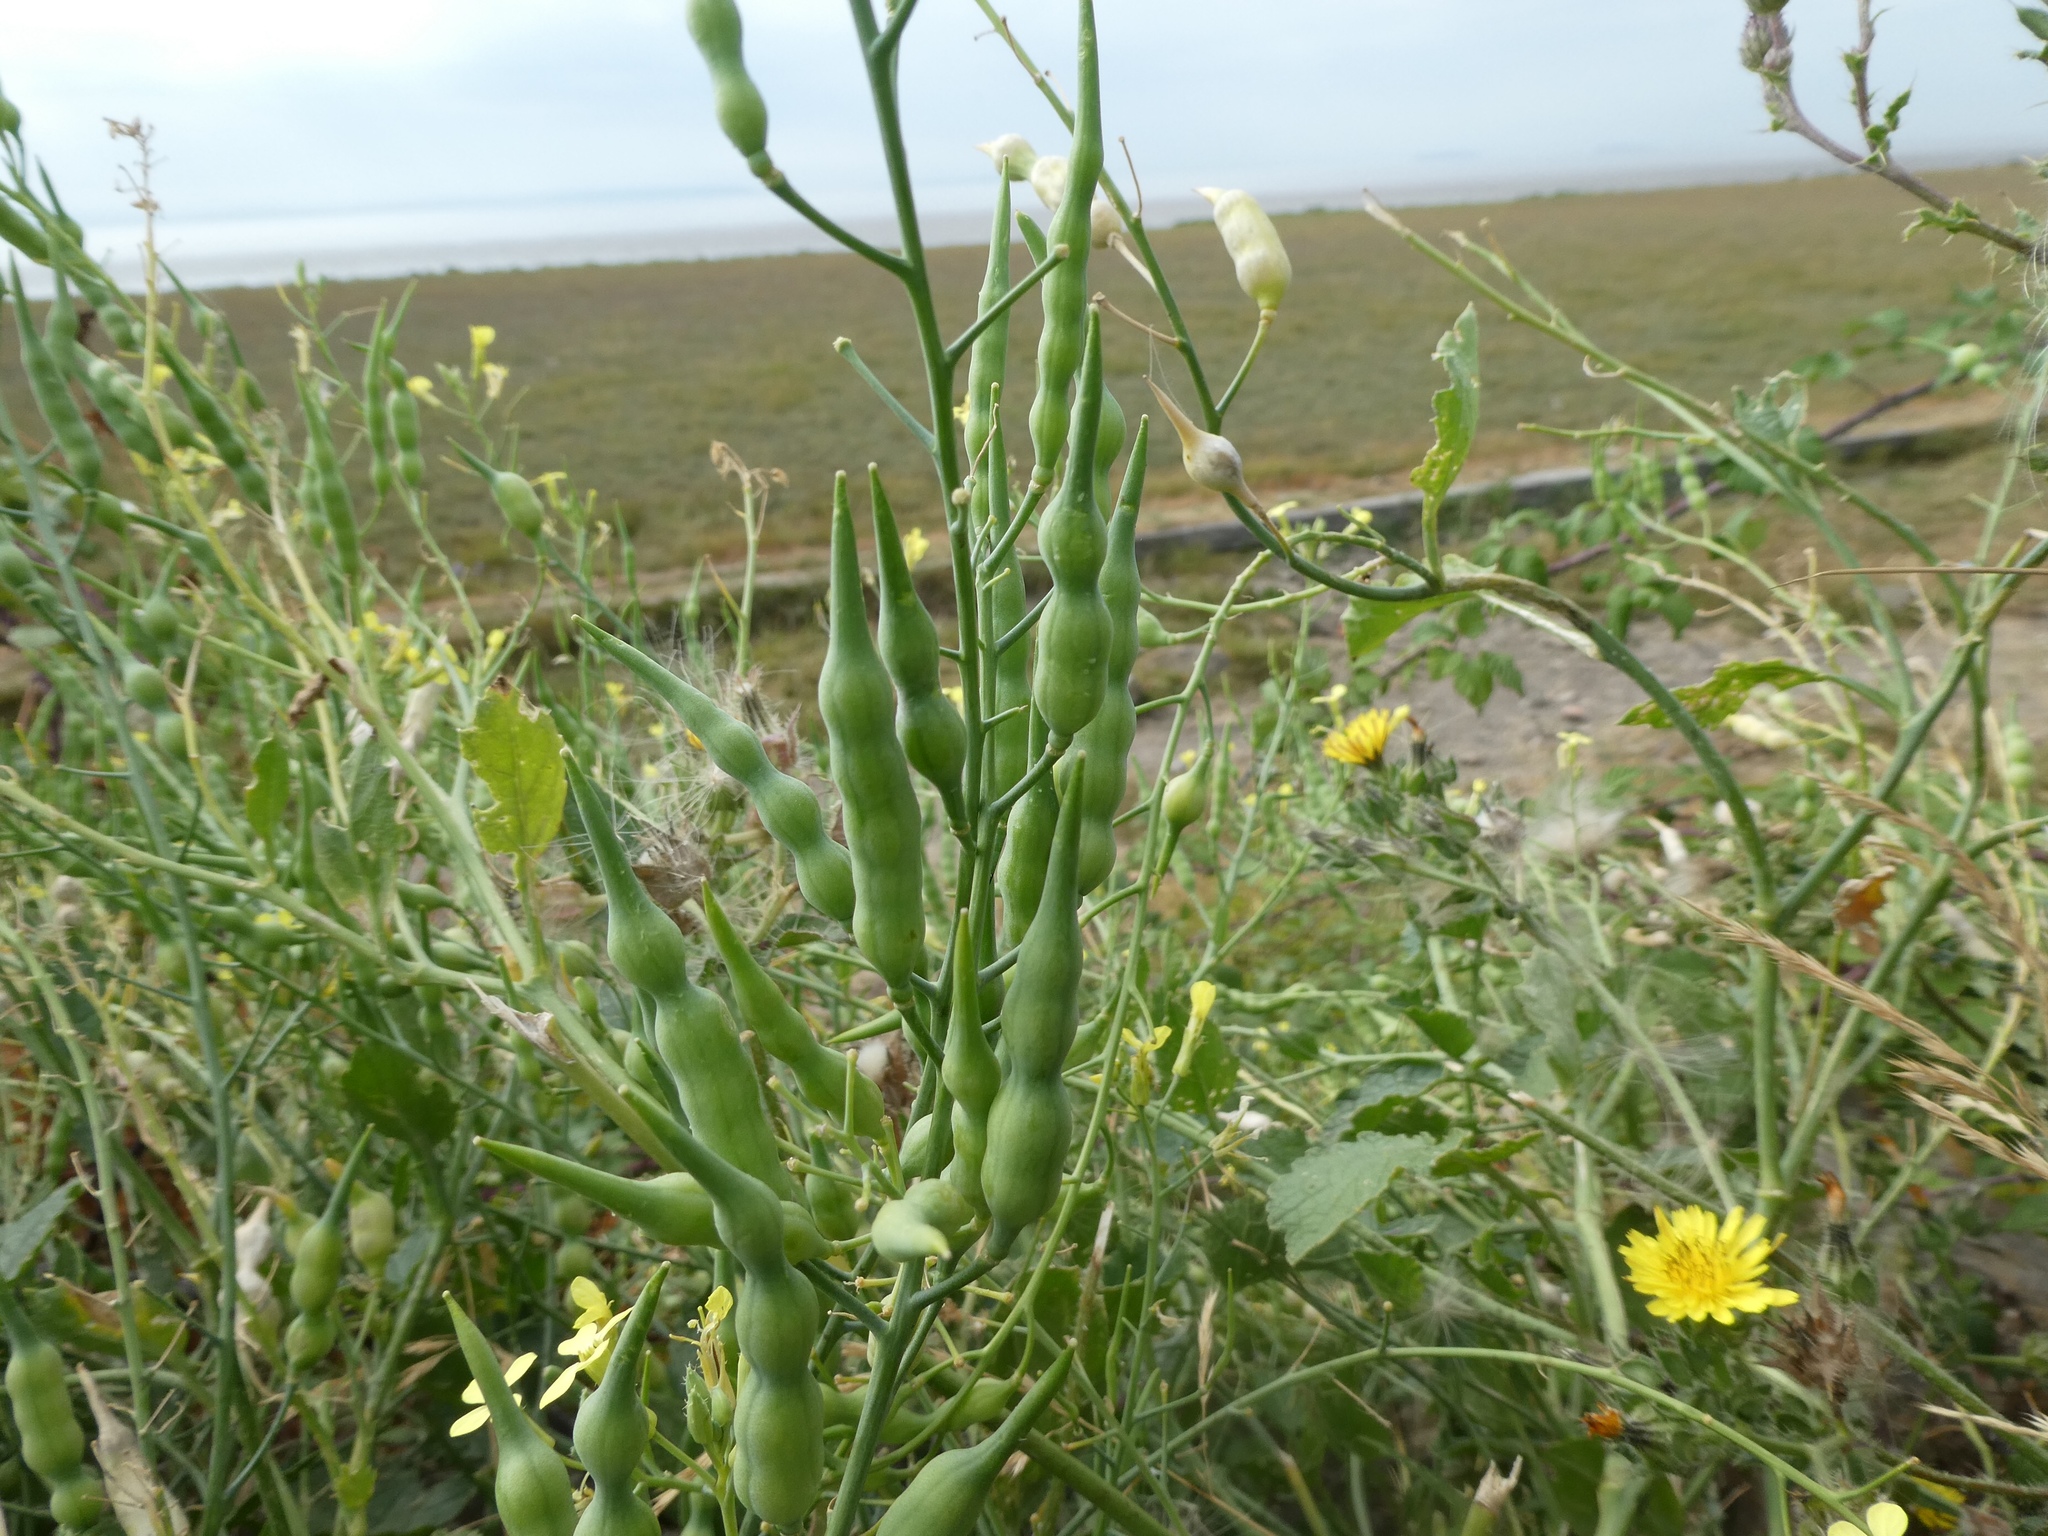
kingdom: Plantae
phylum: Tracheophyta
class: Magnoliopsida
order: Brassicales
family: Brassicaceae
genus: Raphanus
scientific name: Raphanus raphanistrum
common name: Wild radish
